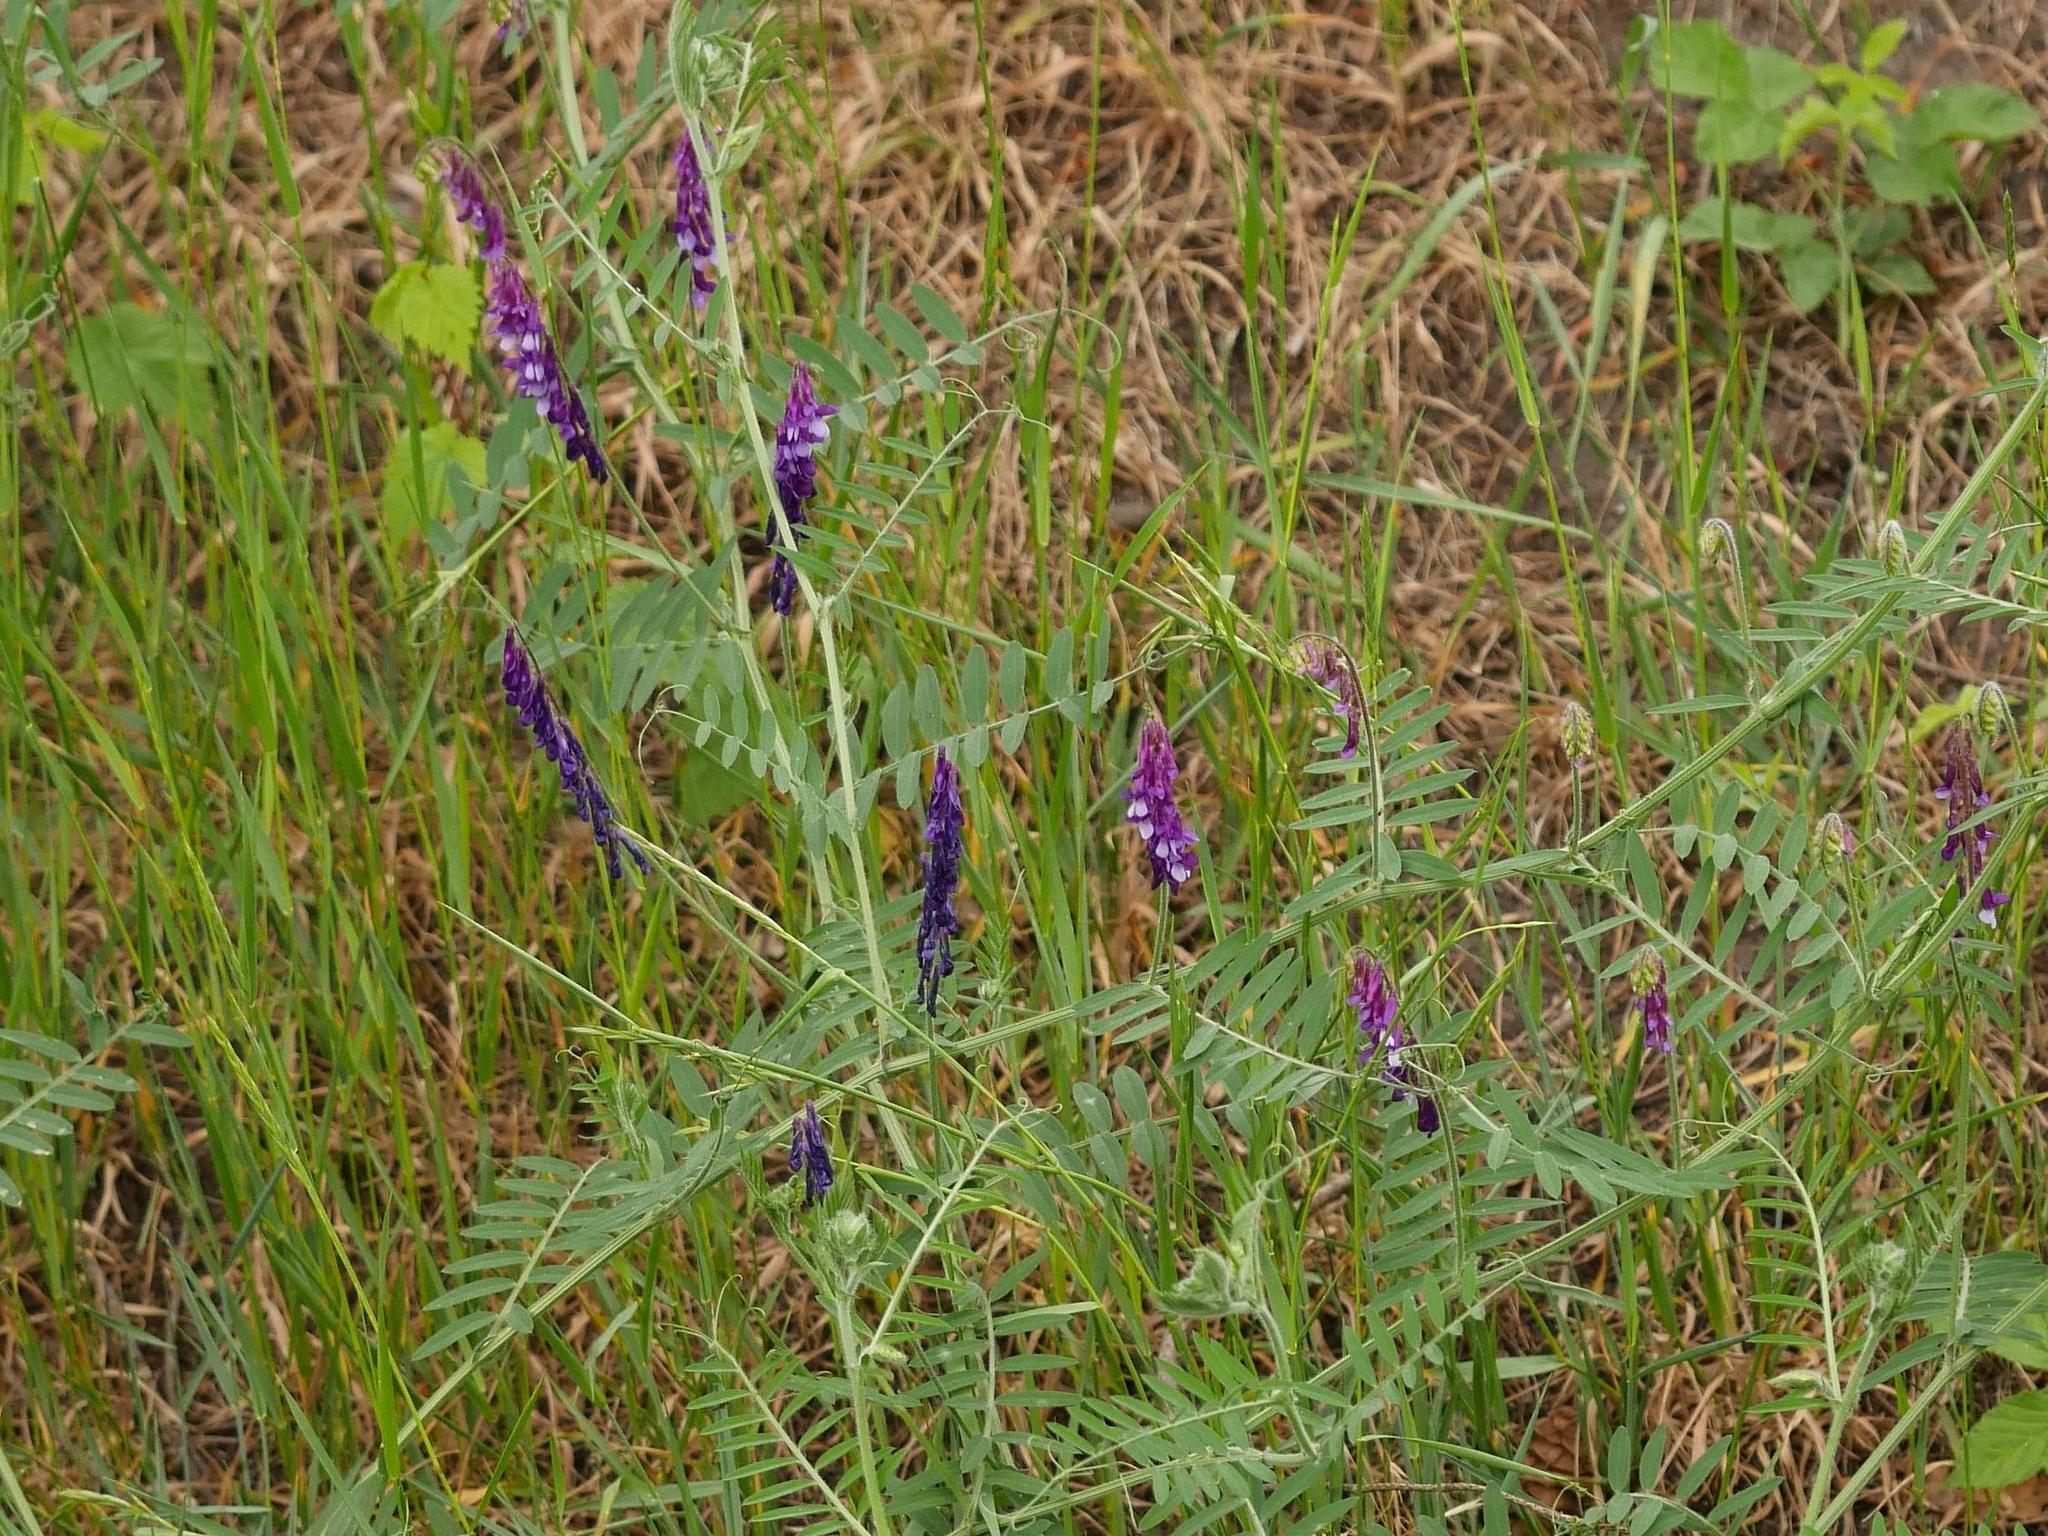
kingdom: Plantae
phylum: Tracheophyta
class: Magnoliopsida
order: Fabales
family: Fabaceae
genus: Vicia
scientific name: Vicia villosa
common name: Fodder vetch
